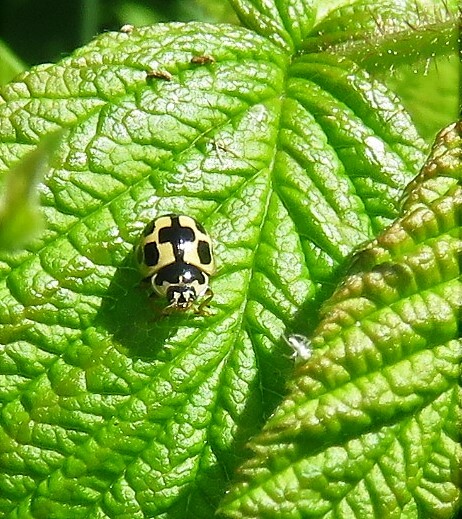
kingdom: Animalia
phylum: Arthropoda
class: Insecta
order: Coleoptera
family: Coccinellidae
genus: Propylaea
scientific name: Propylaea quatuordecimpunctata
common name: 14-spotted ladybird beetle
